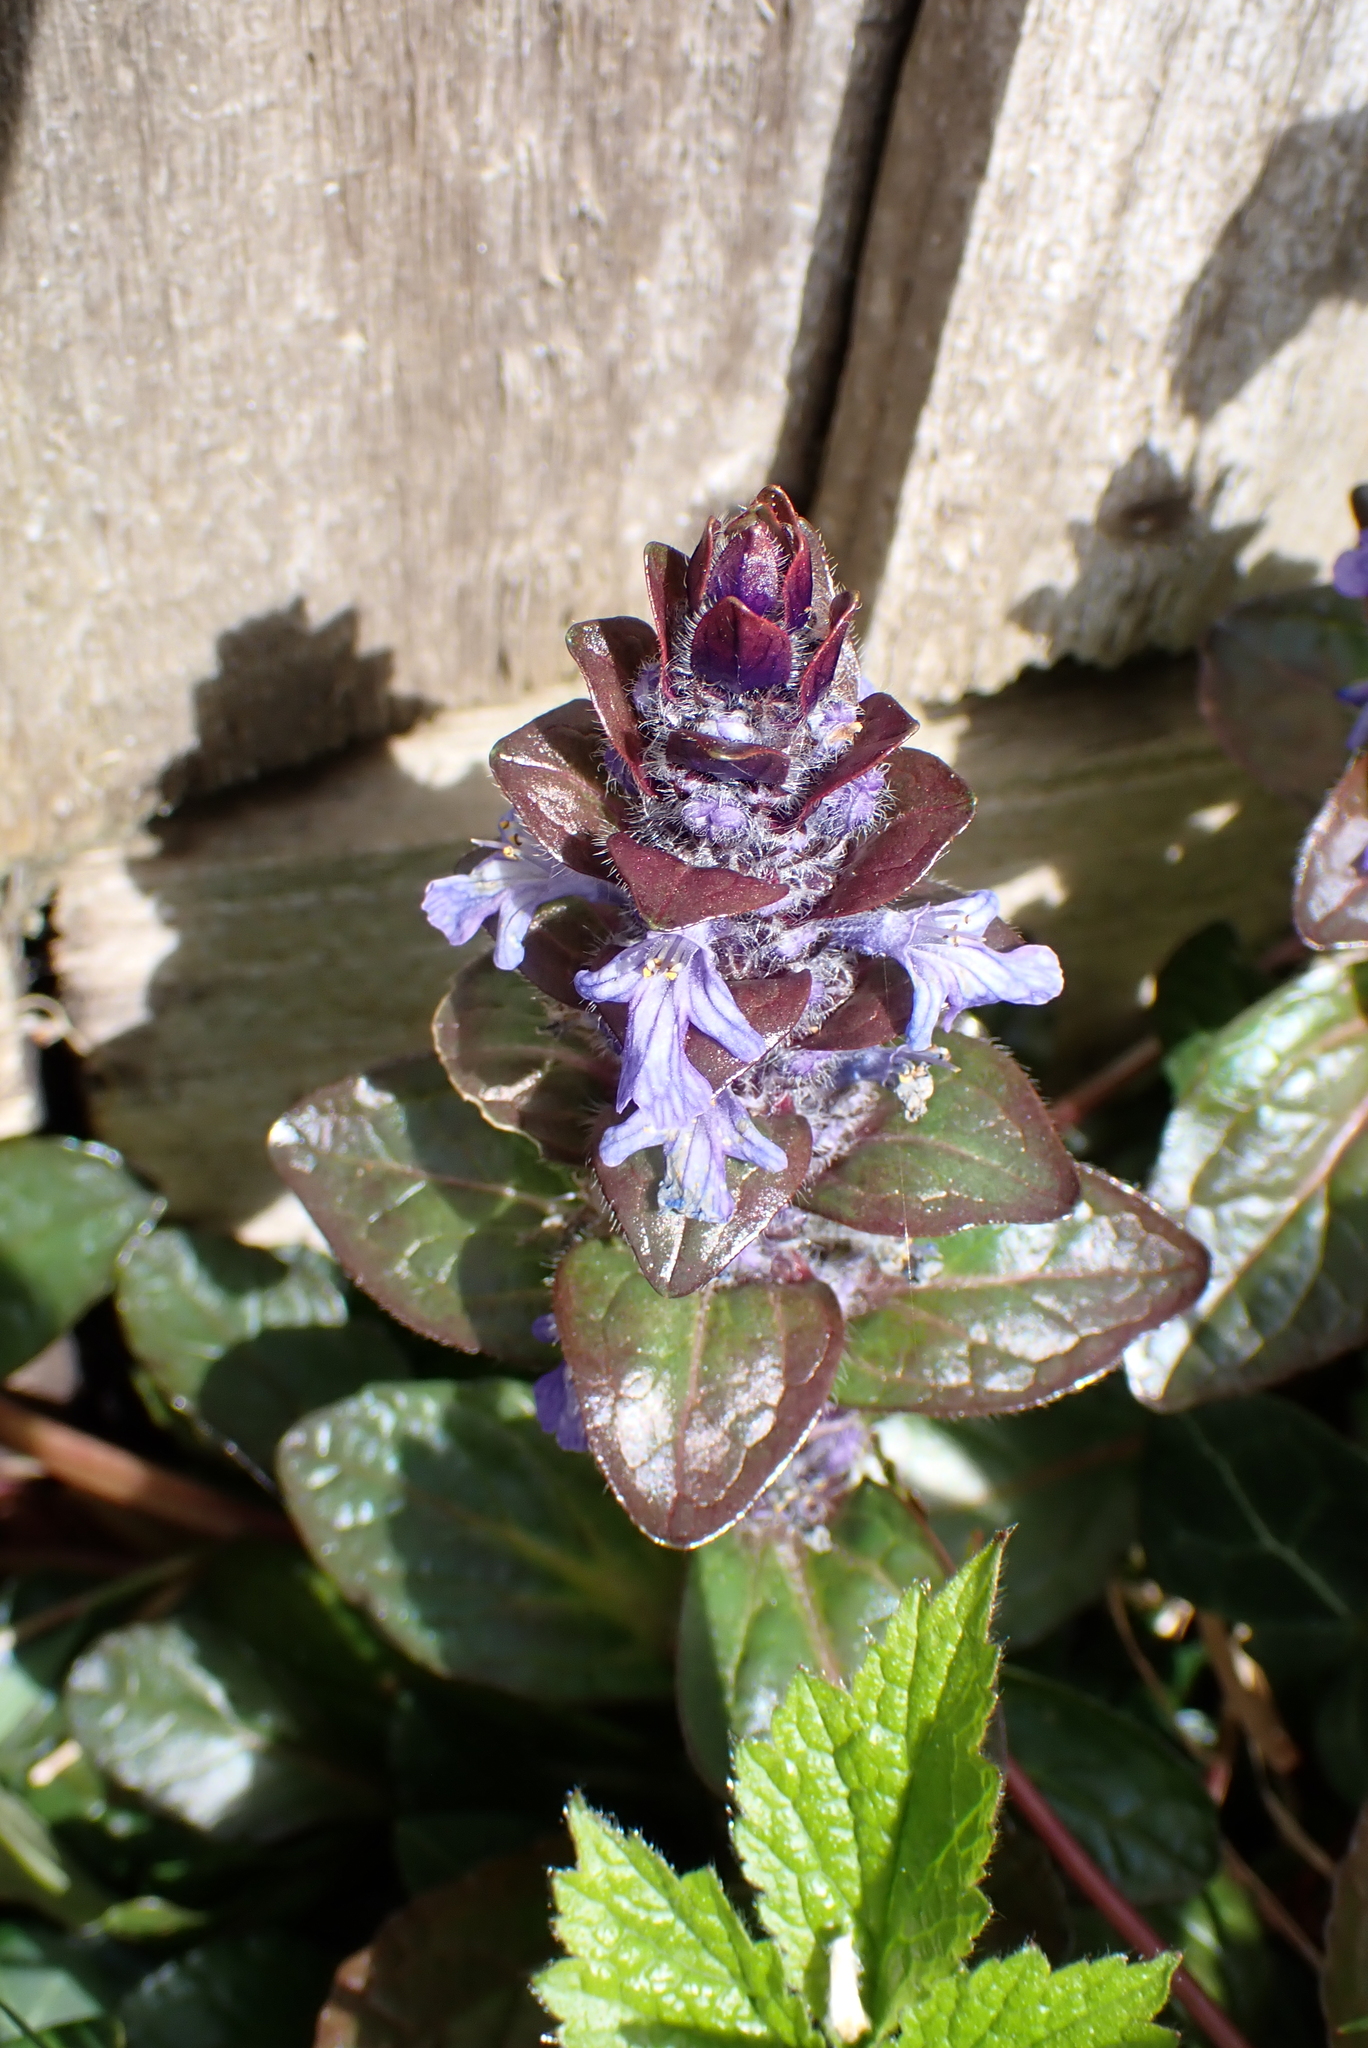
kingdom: Plantae
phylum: Tracheophyta
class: Magnoliopsida
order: Lamiales
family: Lamiaceae
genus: Ajuga
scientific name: Ajuga reptans
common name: Bugle
